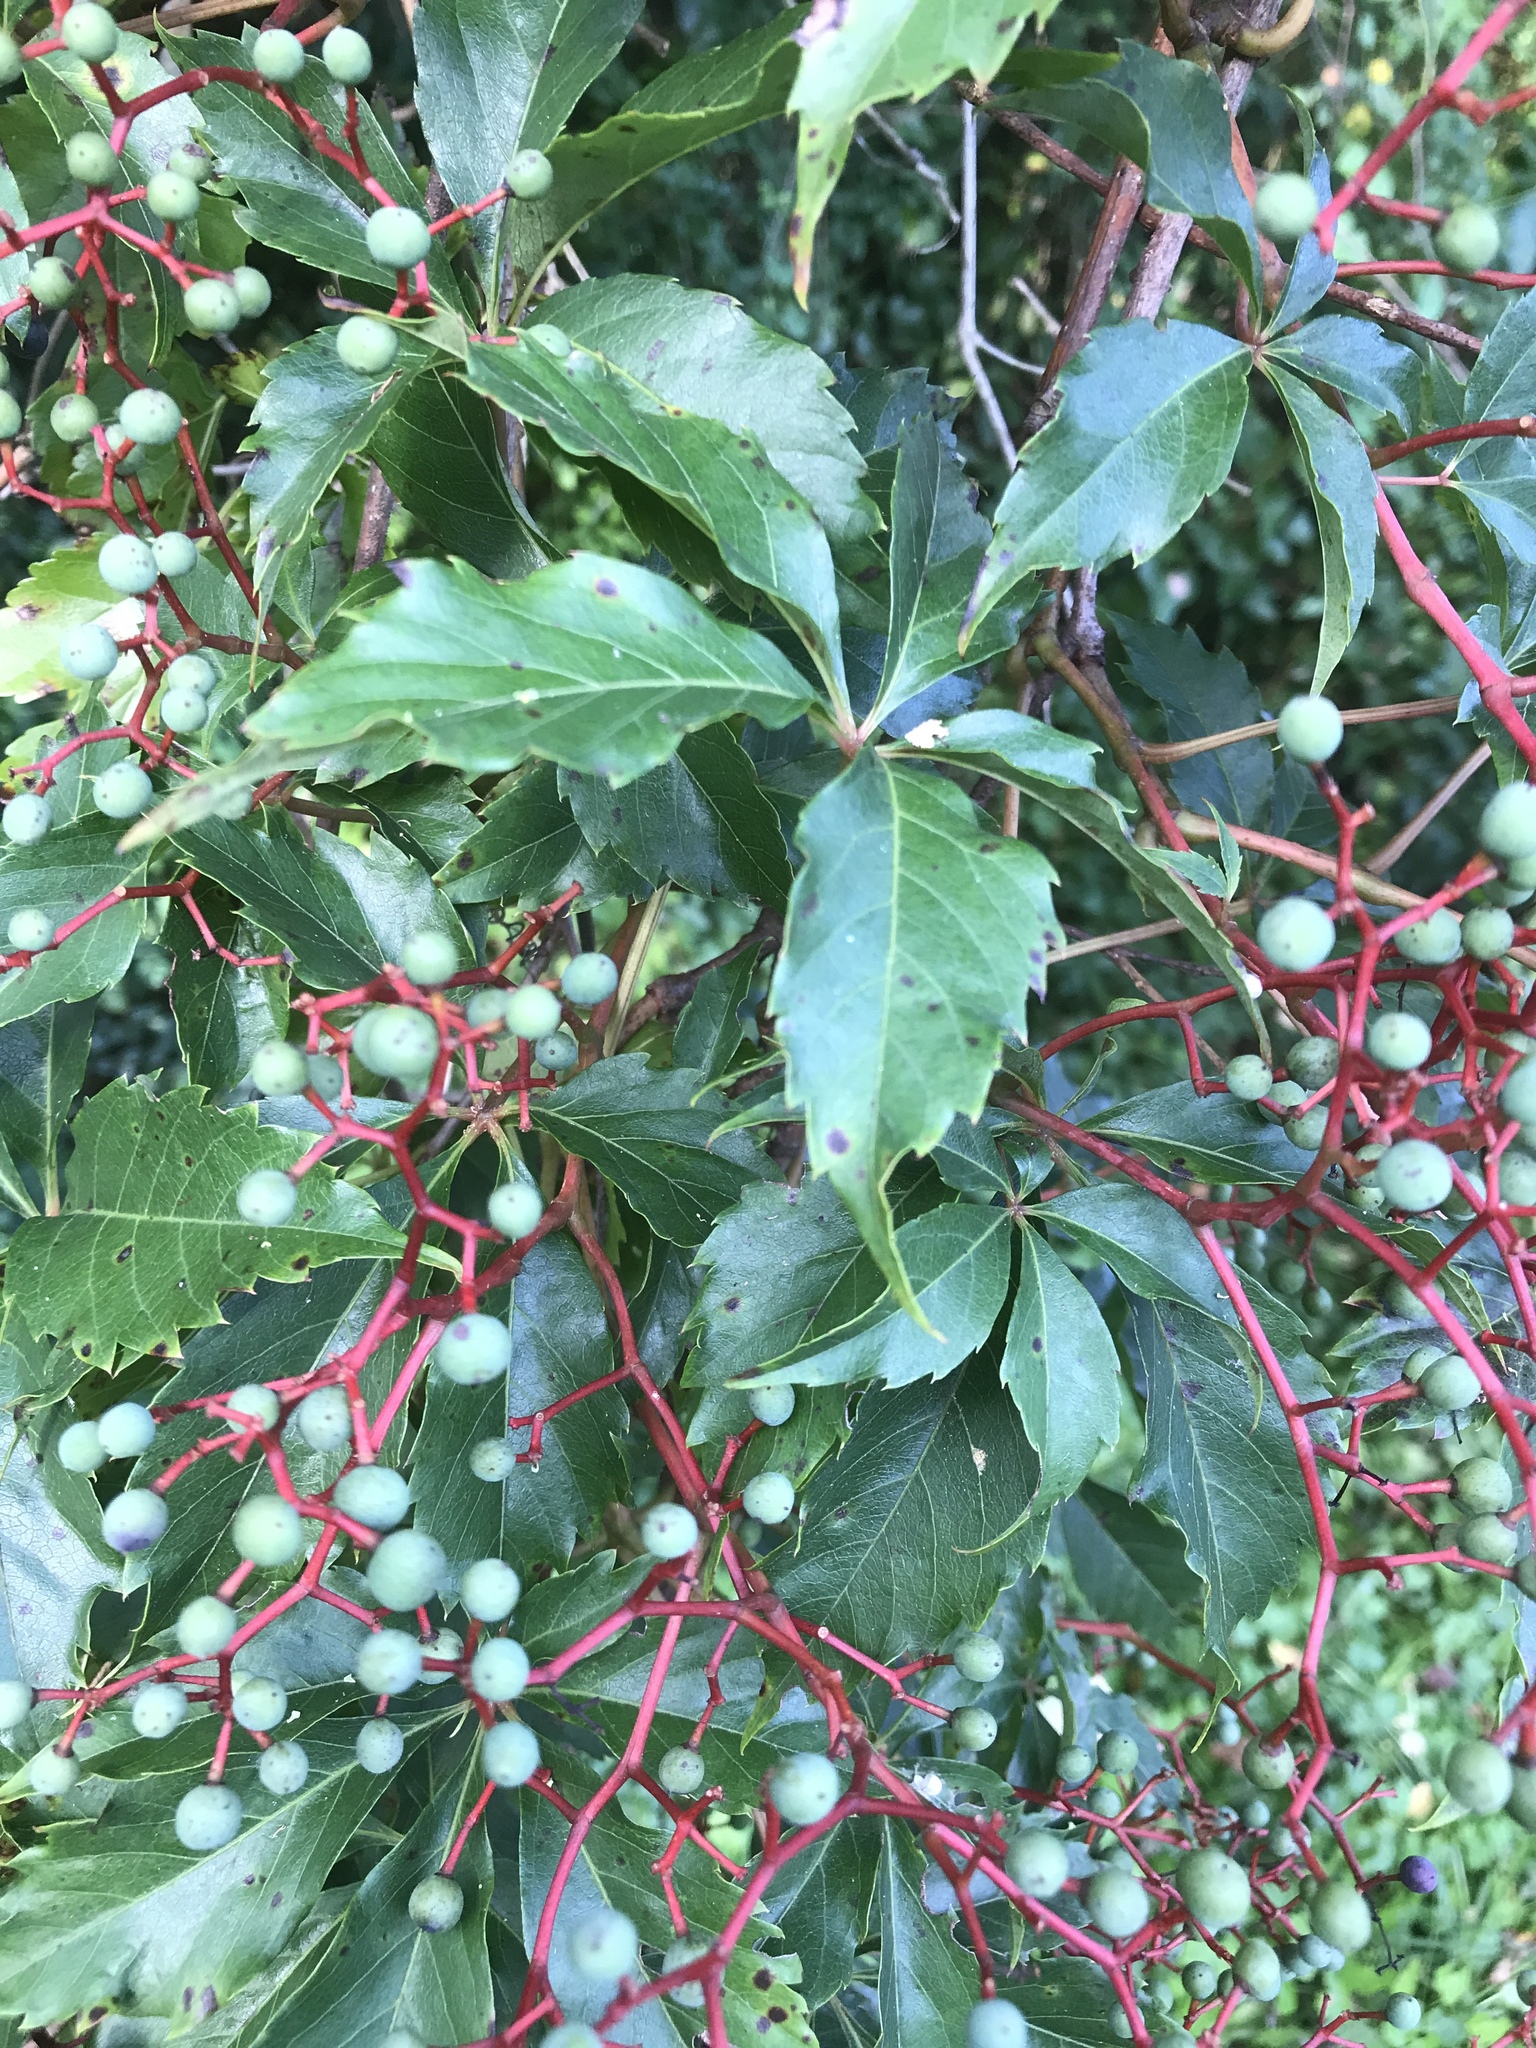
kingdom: Plantae
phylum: Tracheophyta
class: Magnoliopsida
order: Vitales
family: Vitaceae
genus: Parthenocissus
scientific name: Parthenocissus quinquefolia
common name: Virginia-creeper
